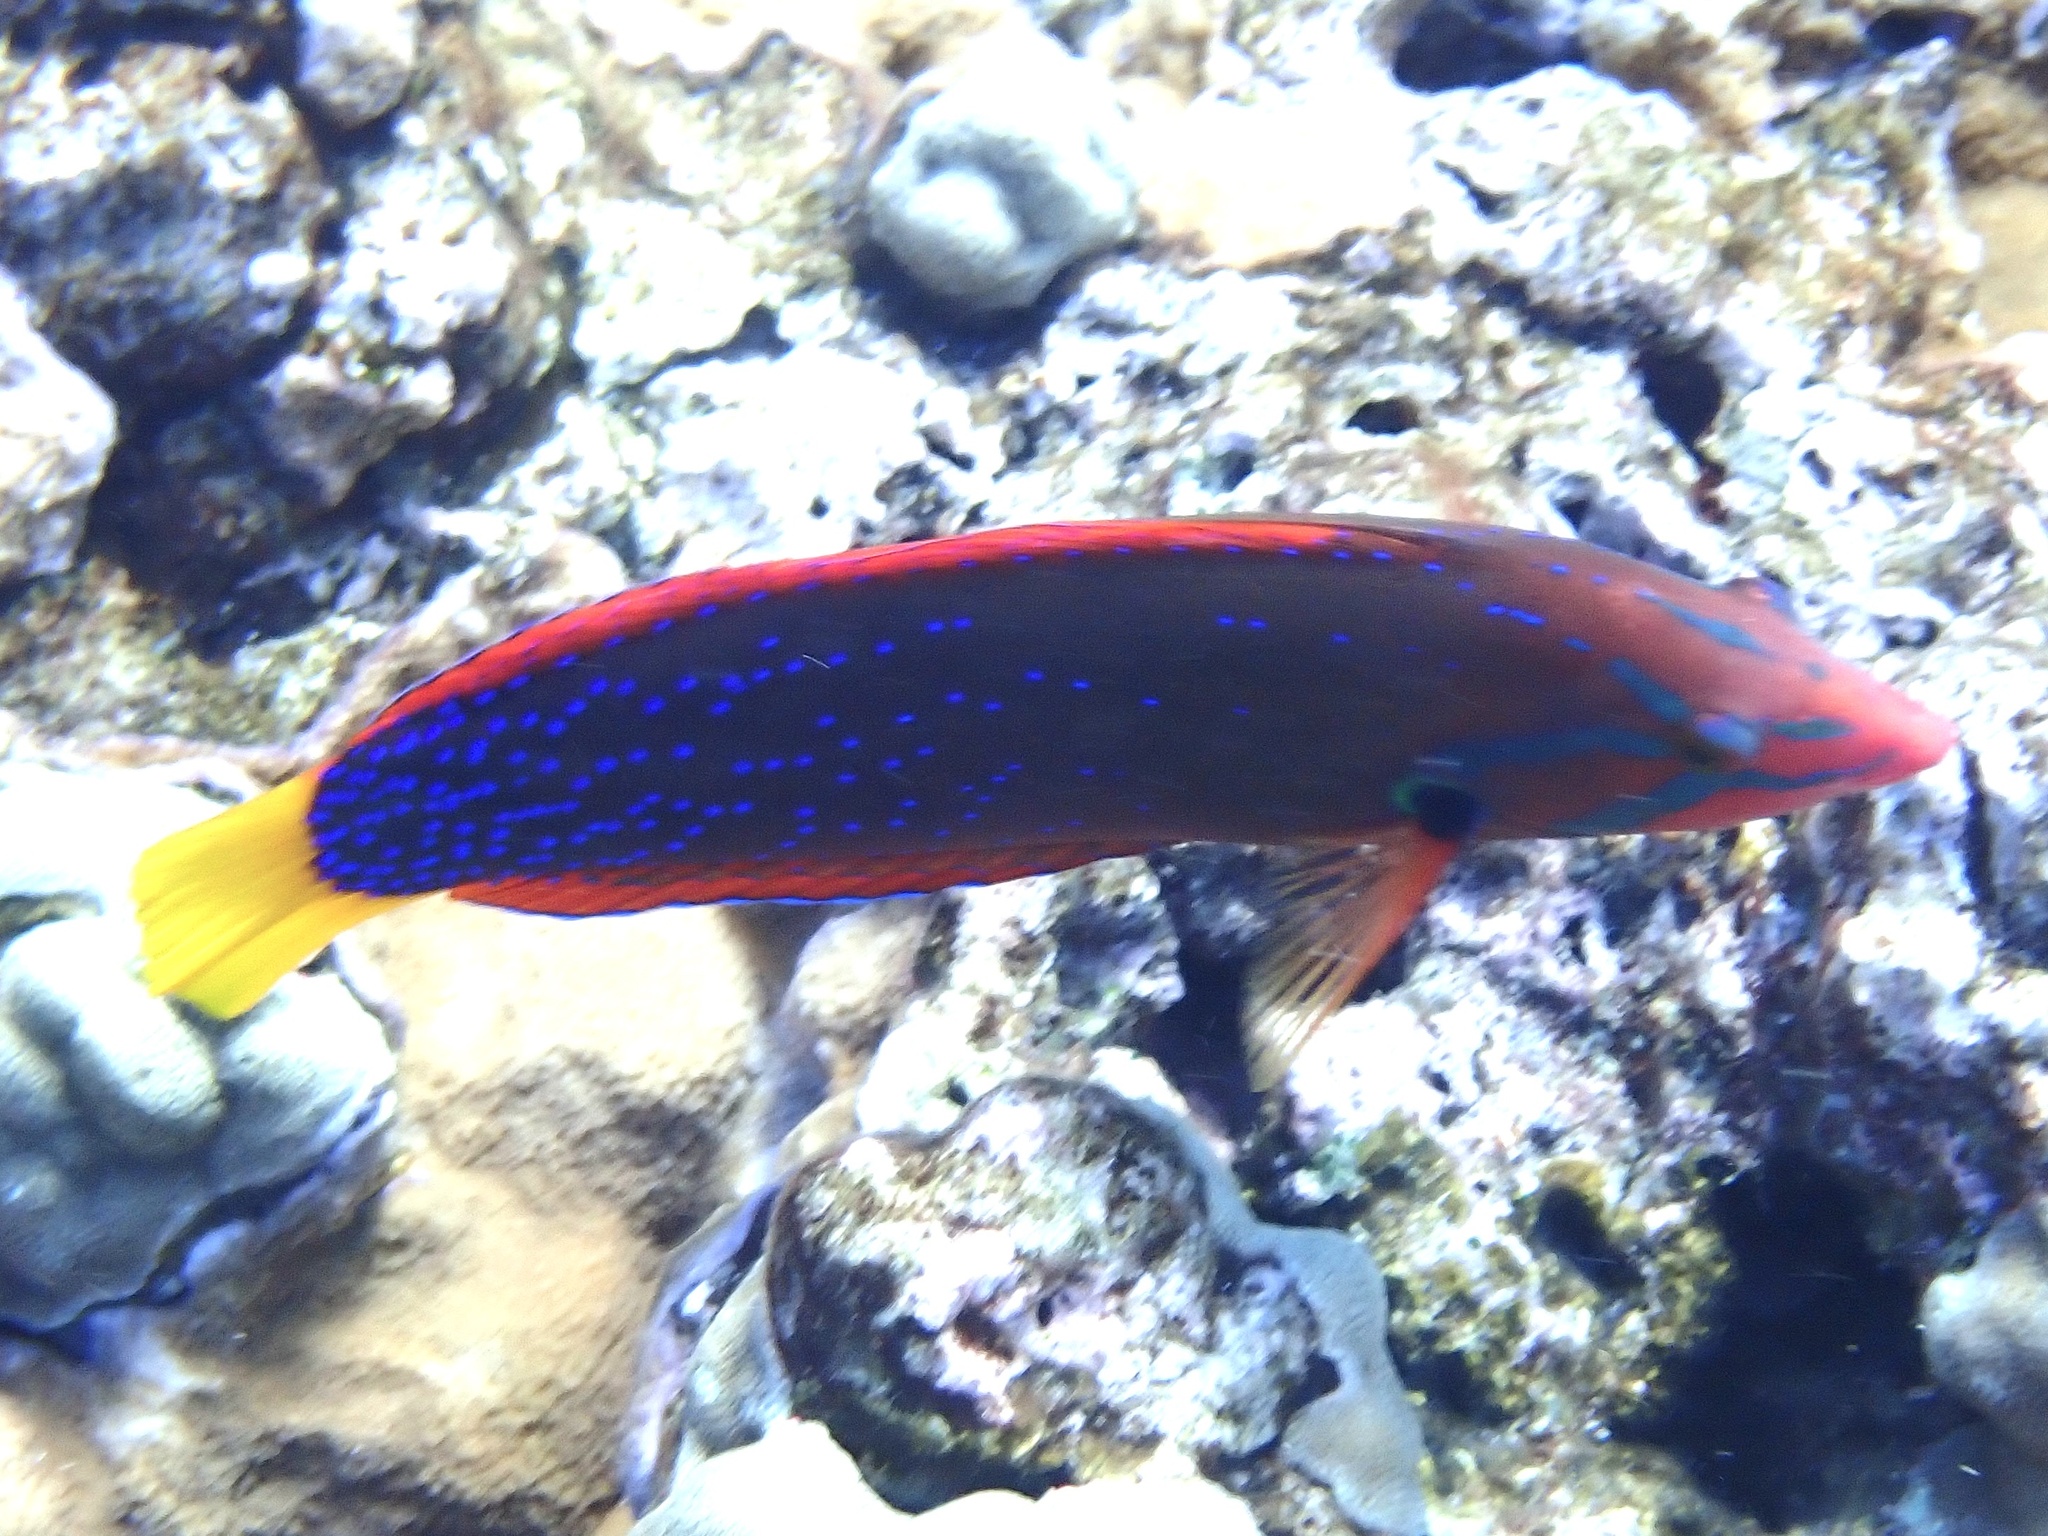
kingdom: Animalia
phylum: Chordata
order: Perciformes
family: Labridae
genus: Coris
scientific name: Coris gaimard
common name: Yellowtail coris
